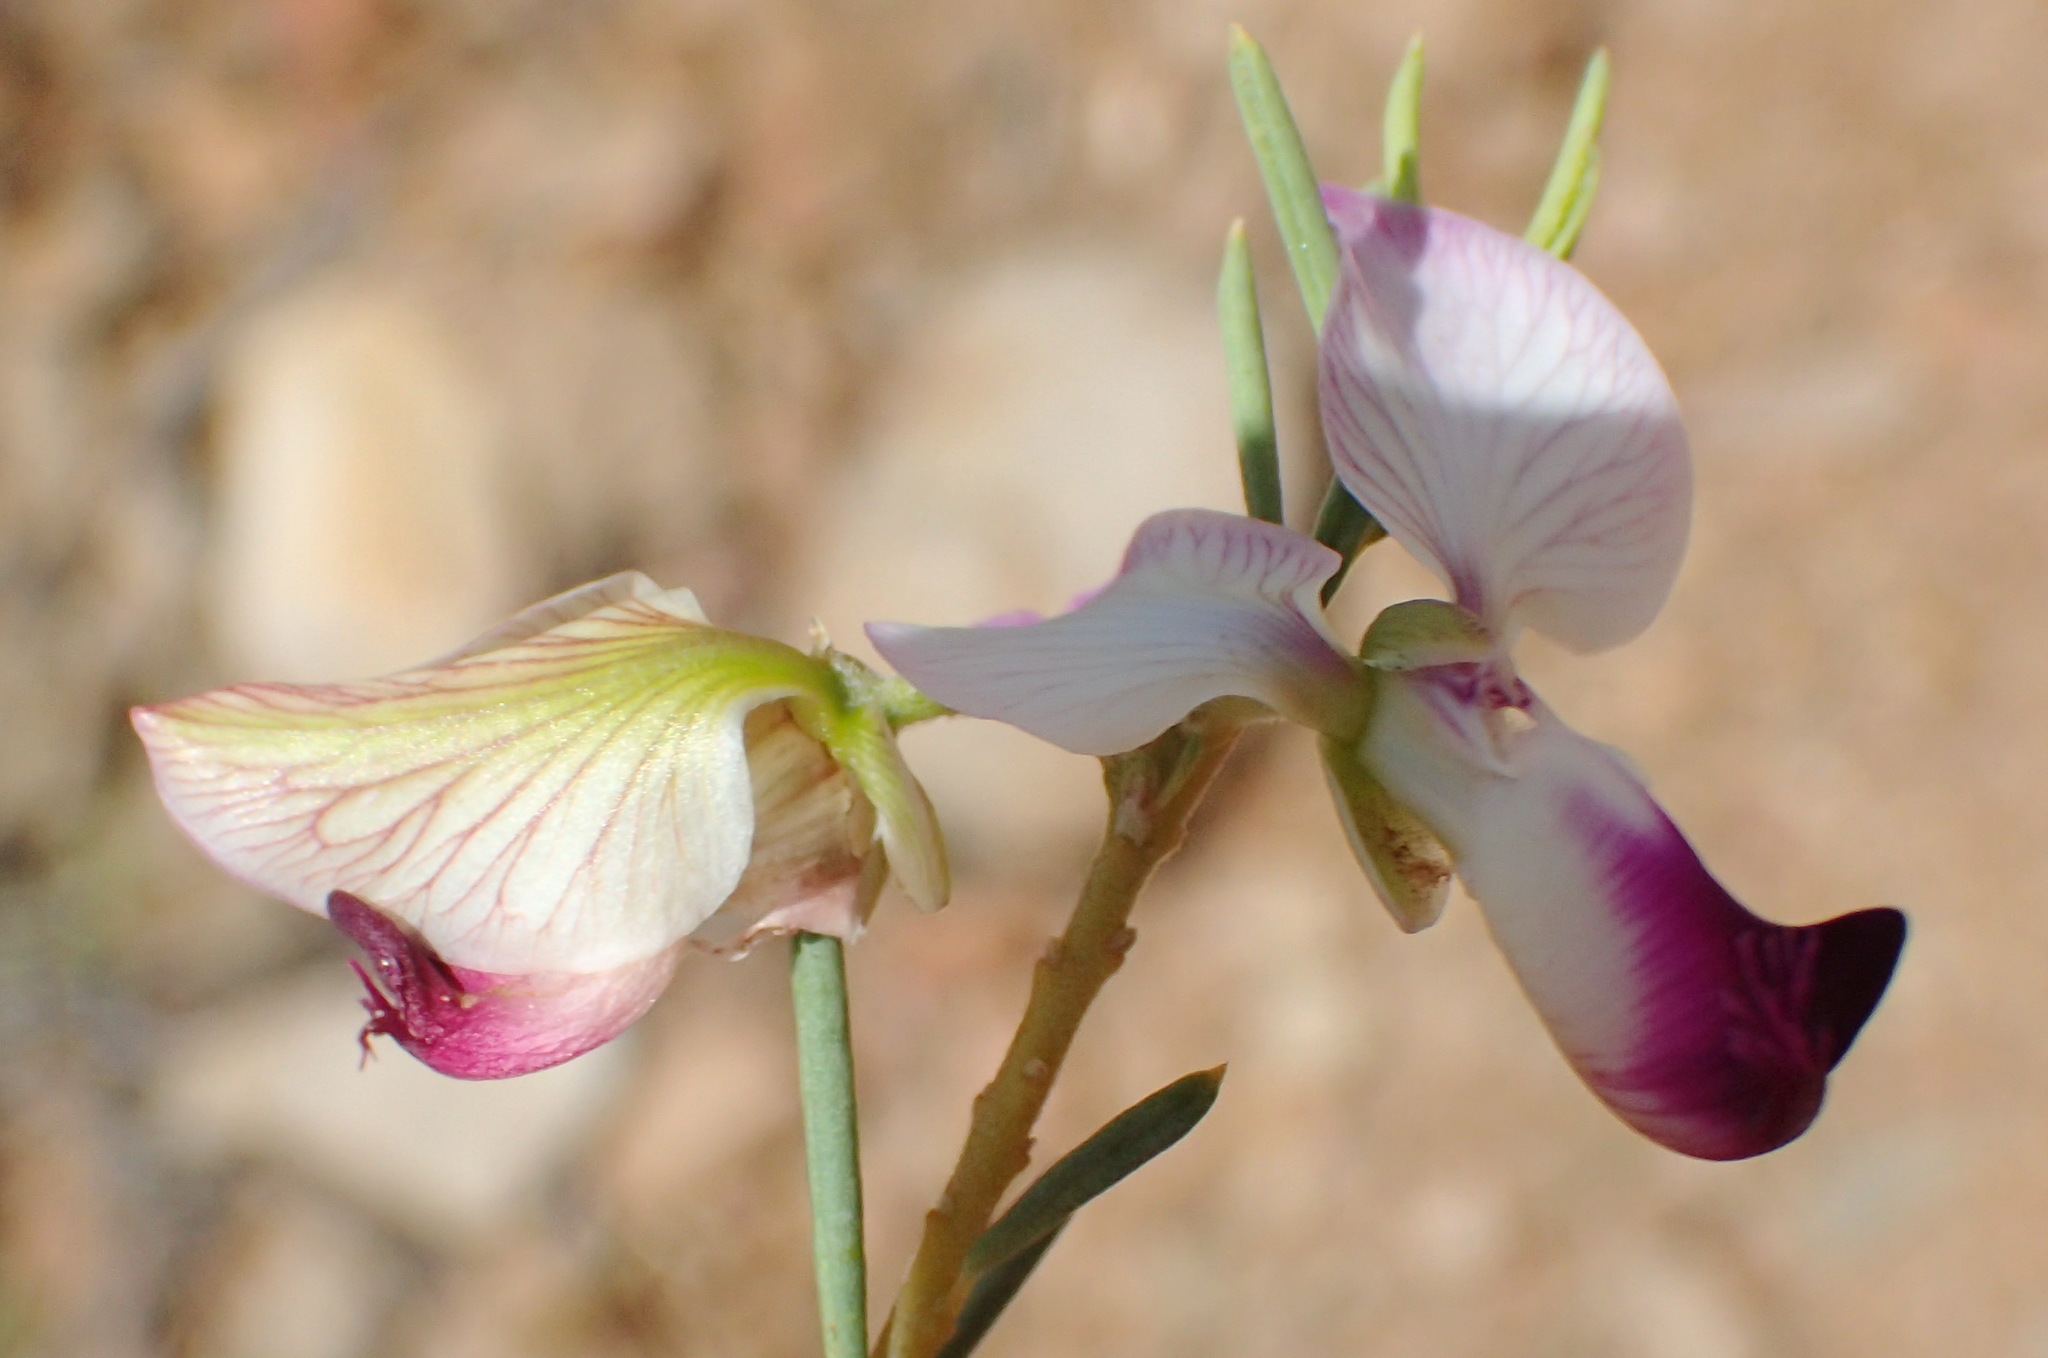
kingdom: Plantae
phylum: Tracheophyta
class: Magnoliopsida
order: Fabales
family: Polygalaceae
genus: Polygala
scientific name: Polygala myrtifolia
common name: Myrtle-leaf milkwort
